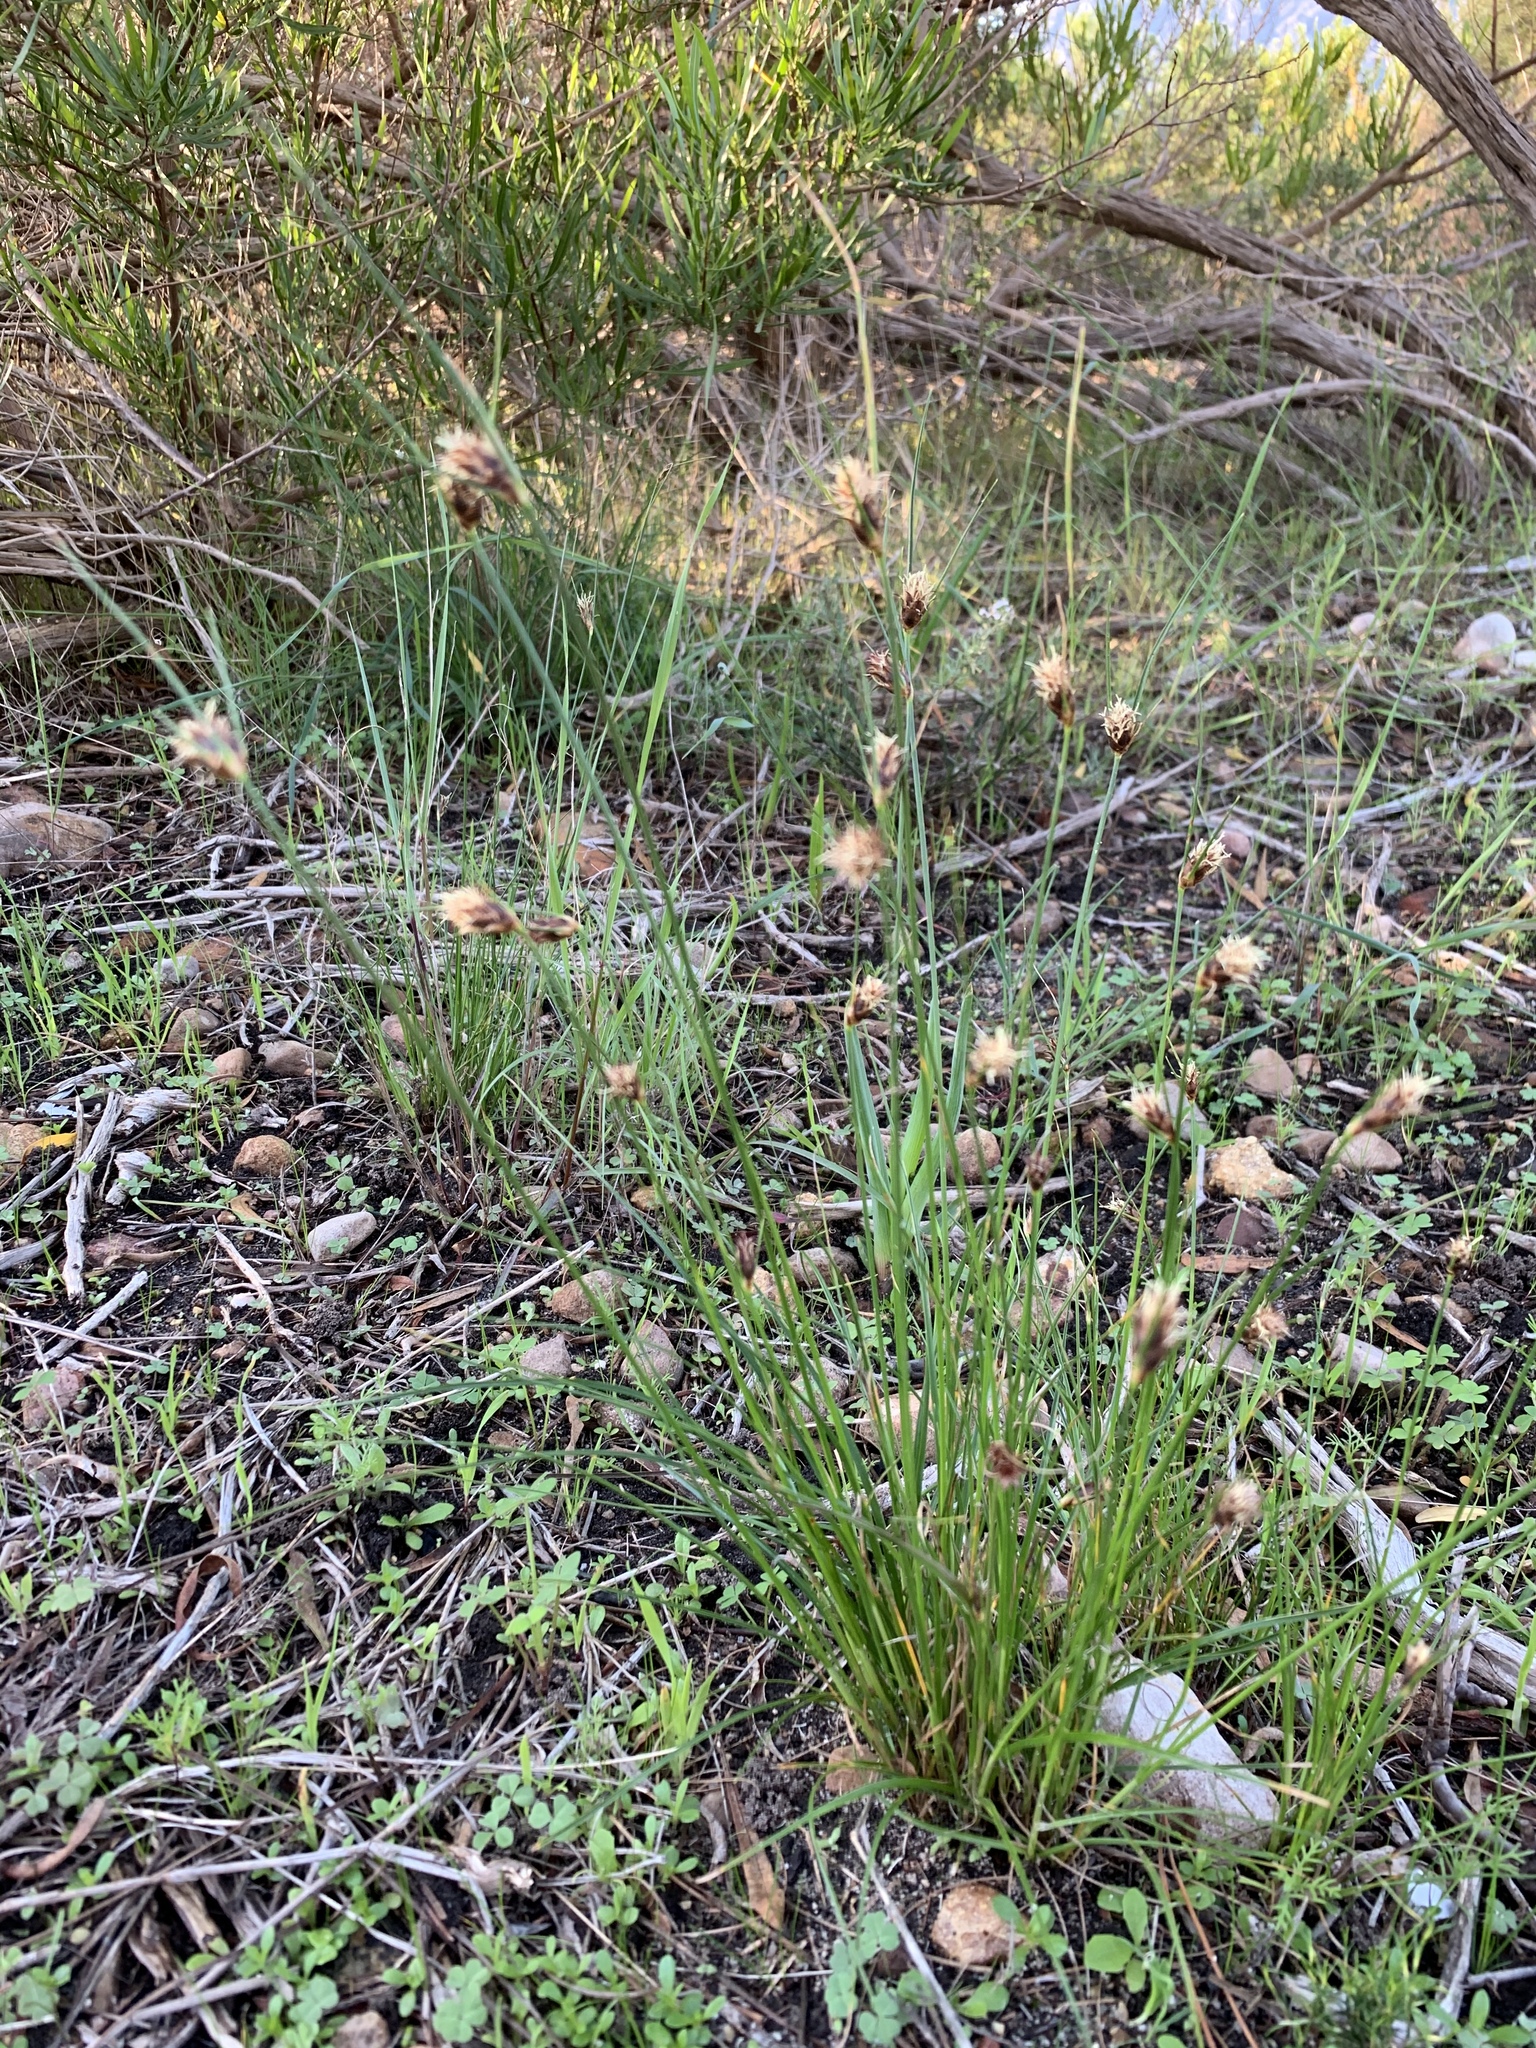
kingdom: Plantae
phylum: Tracheophyta
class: Liliopsida
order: Poales
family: Cyperaceae
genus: Ficinia
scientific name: Ficinia nigrescens
